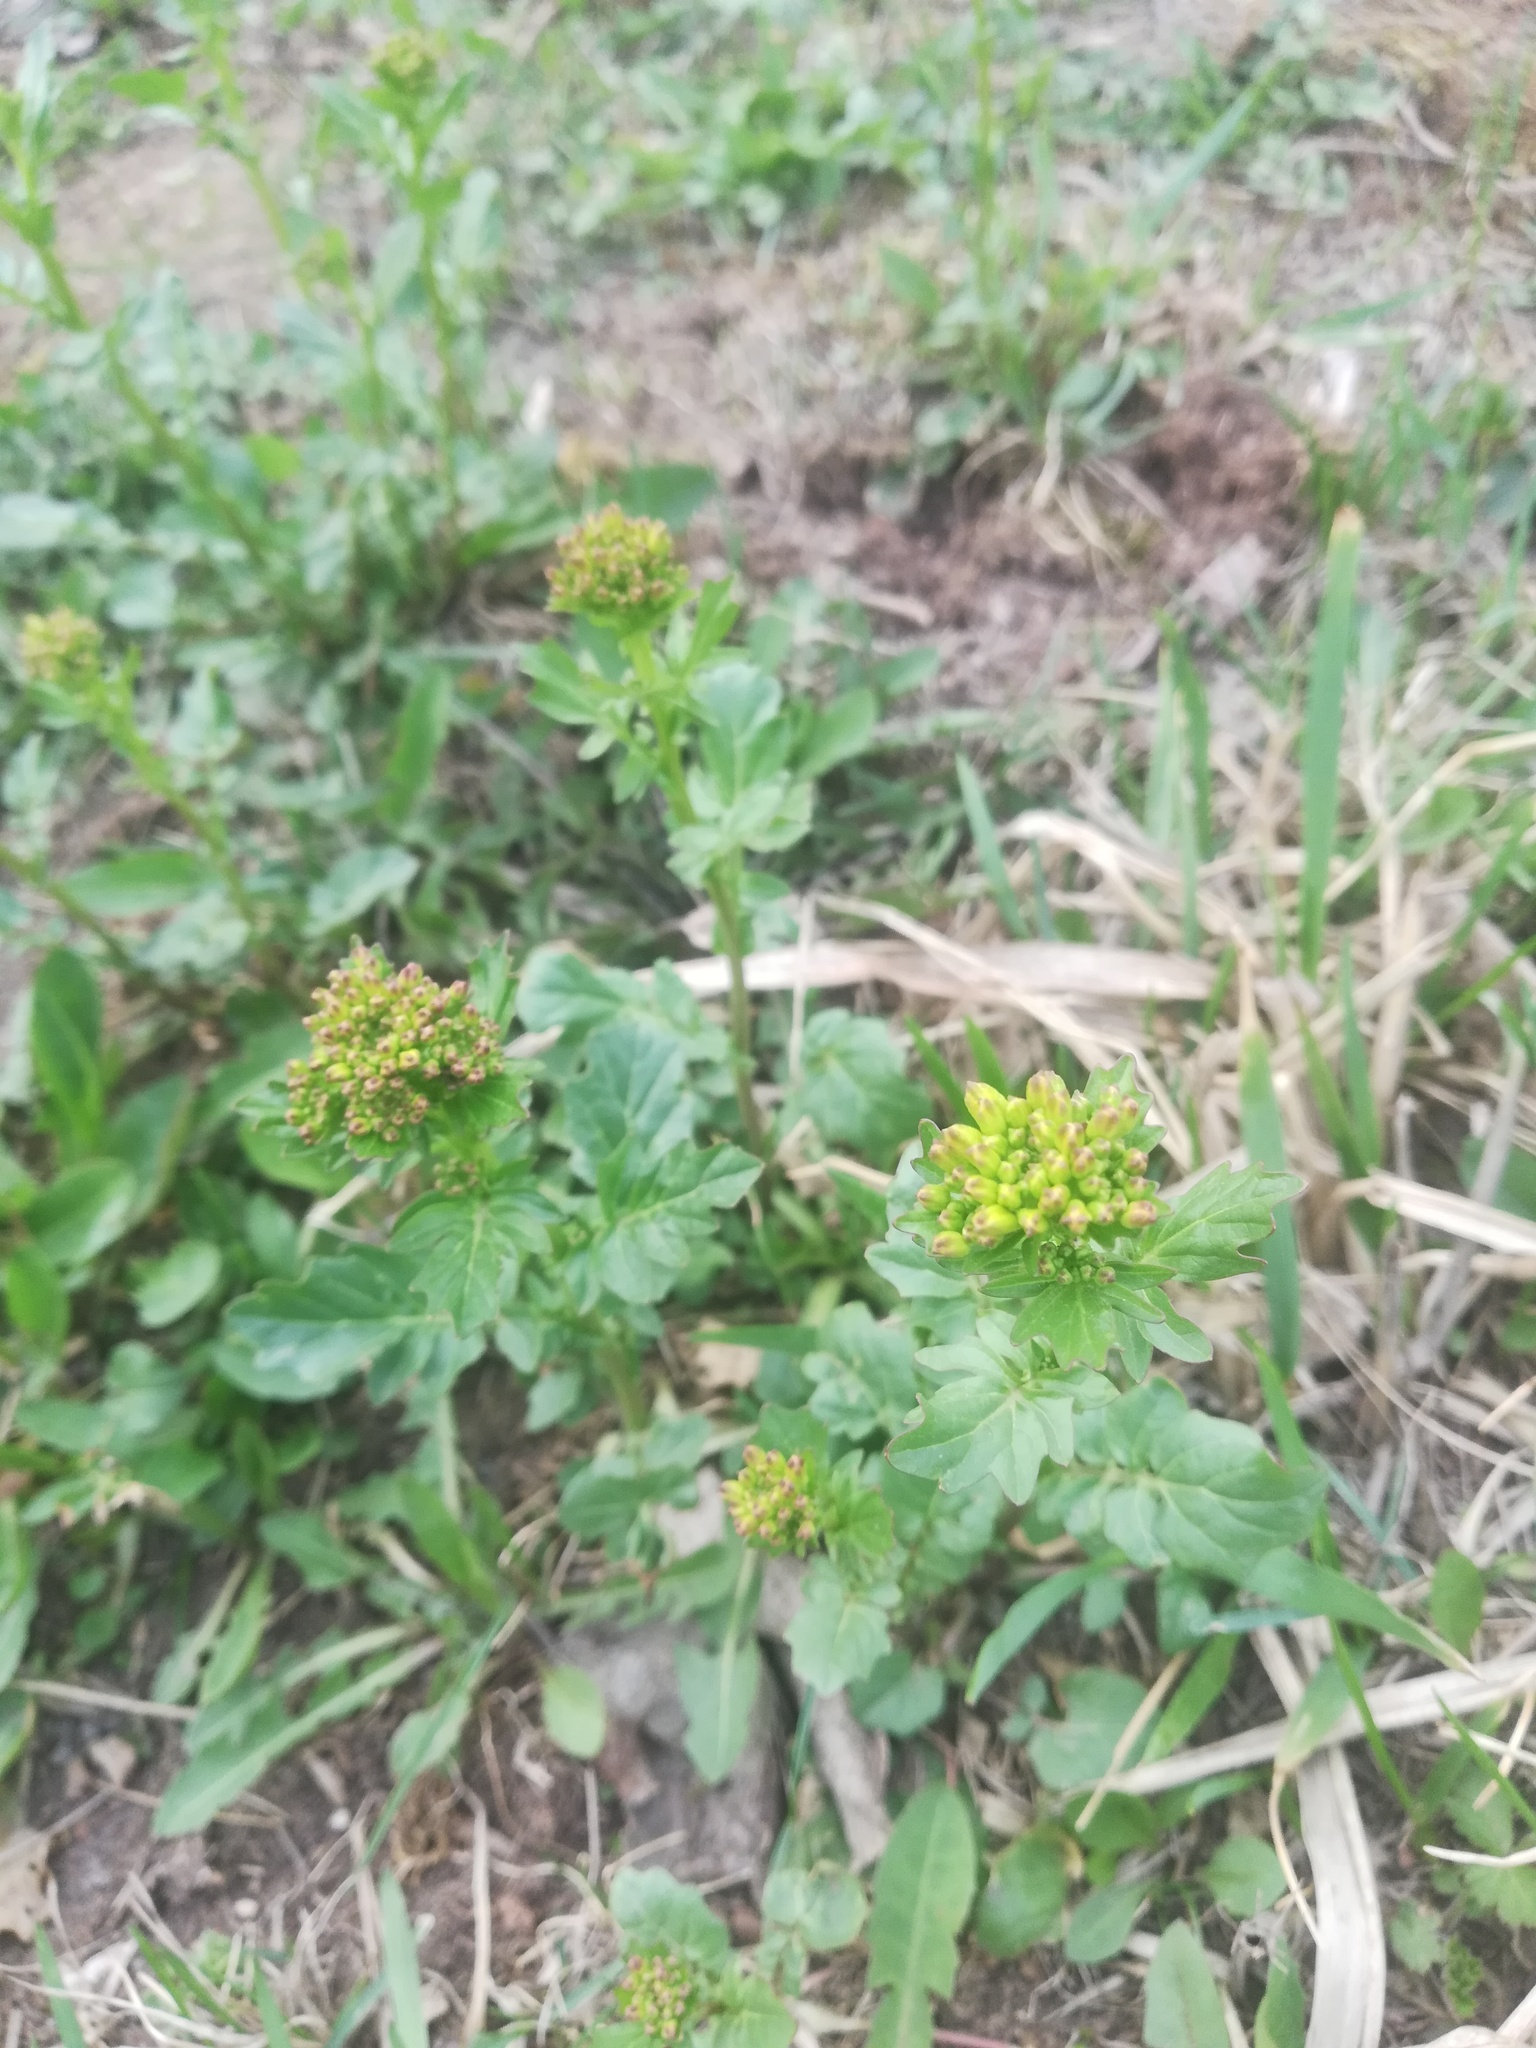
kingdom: Plantae
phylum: Tracheophyta
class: Magnoliopsida
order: Brassicales
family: Brassicaceae
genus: Barbarea
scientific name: Barbarea vulgaris
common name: Cressy-greens
